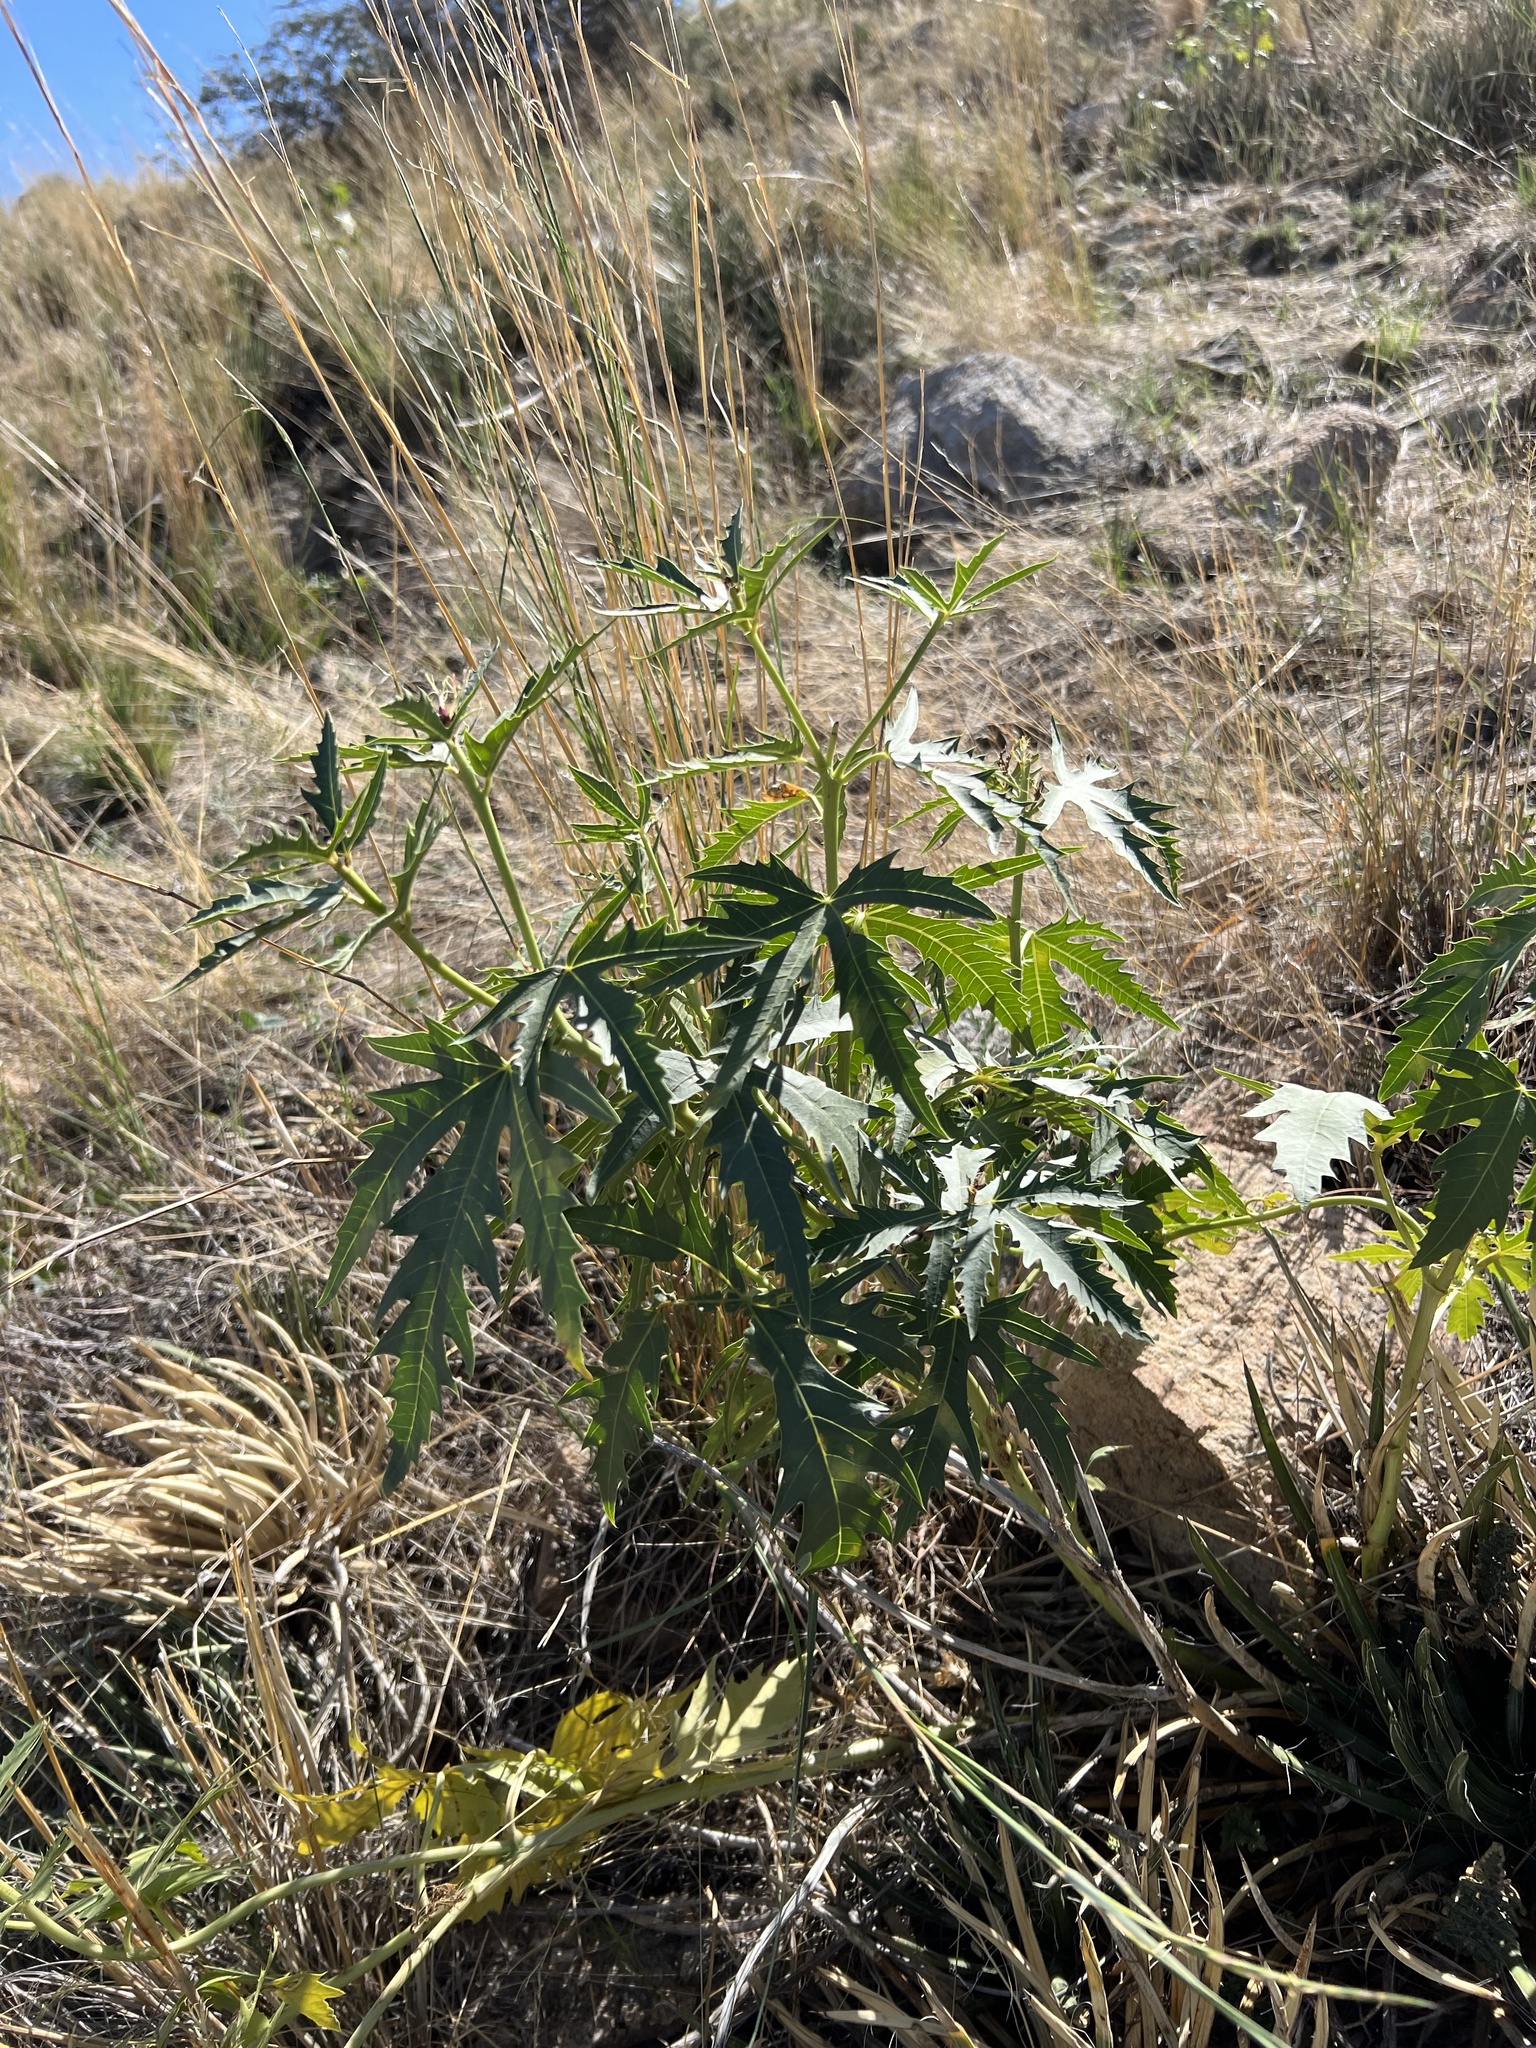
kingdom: Plantae
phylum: Tracheophyta
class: Magnoliopsida
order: Malpighiales
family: Euphorbiaceae
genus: Jatropha
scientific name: Jatropha macrorhiza
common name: Ragged nettlespurge
